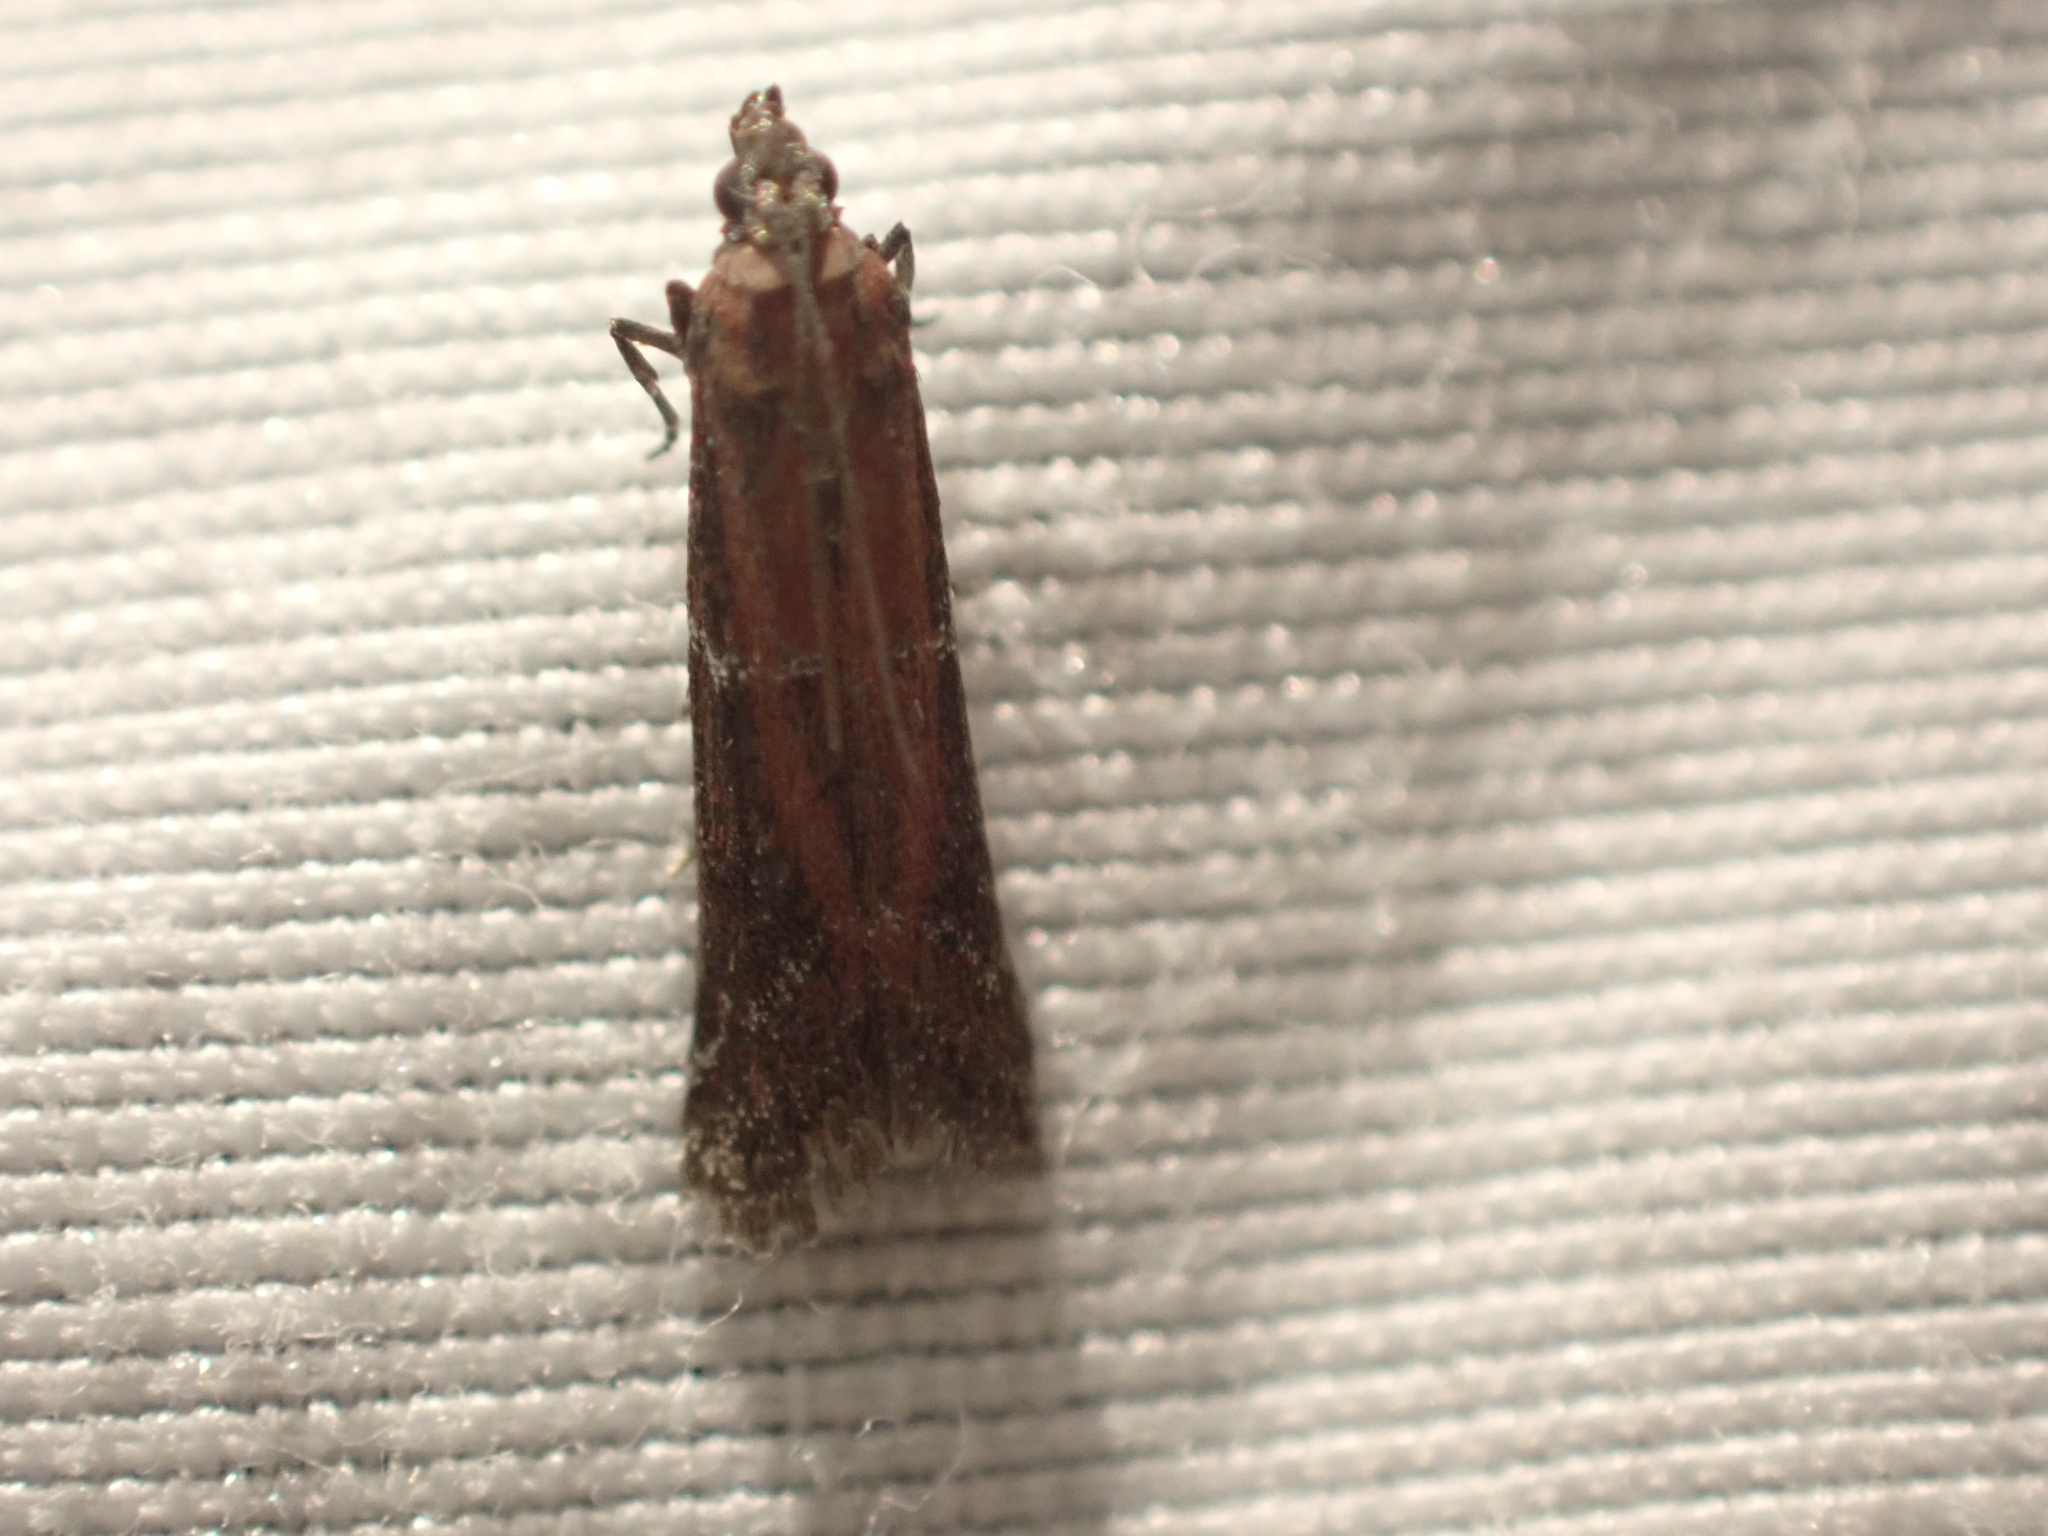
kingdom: Animalia
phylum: Arthropoda
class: Insecta
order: Lepidoptera
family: Pyralidae
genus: Ephestiodes
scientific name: Ephestiodes erythrella
